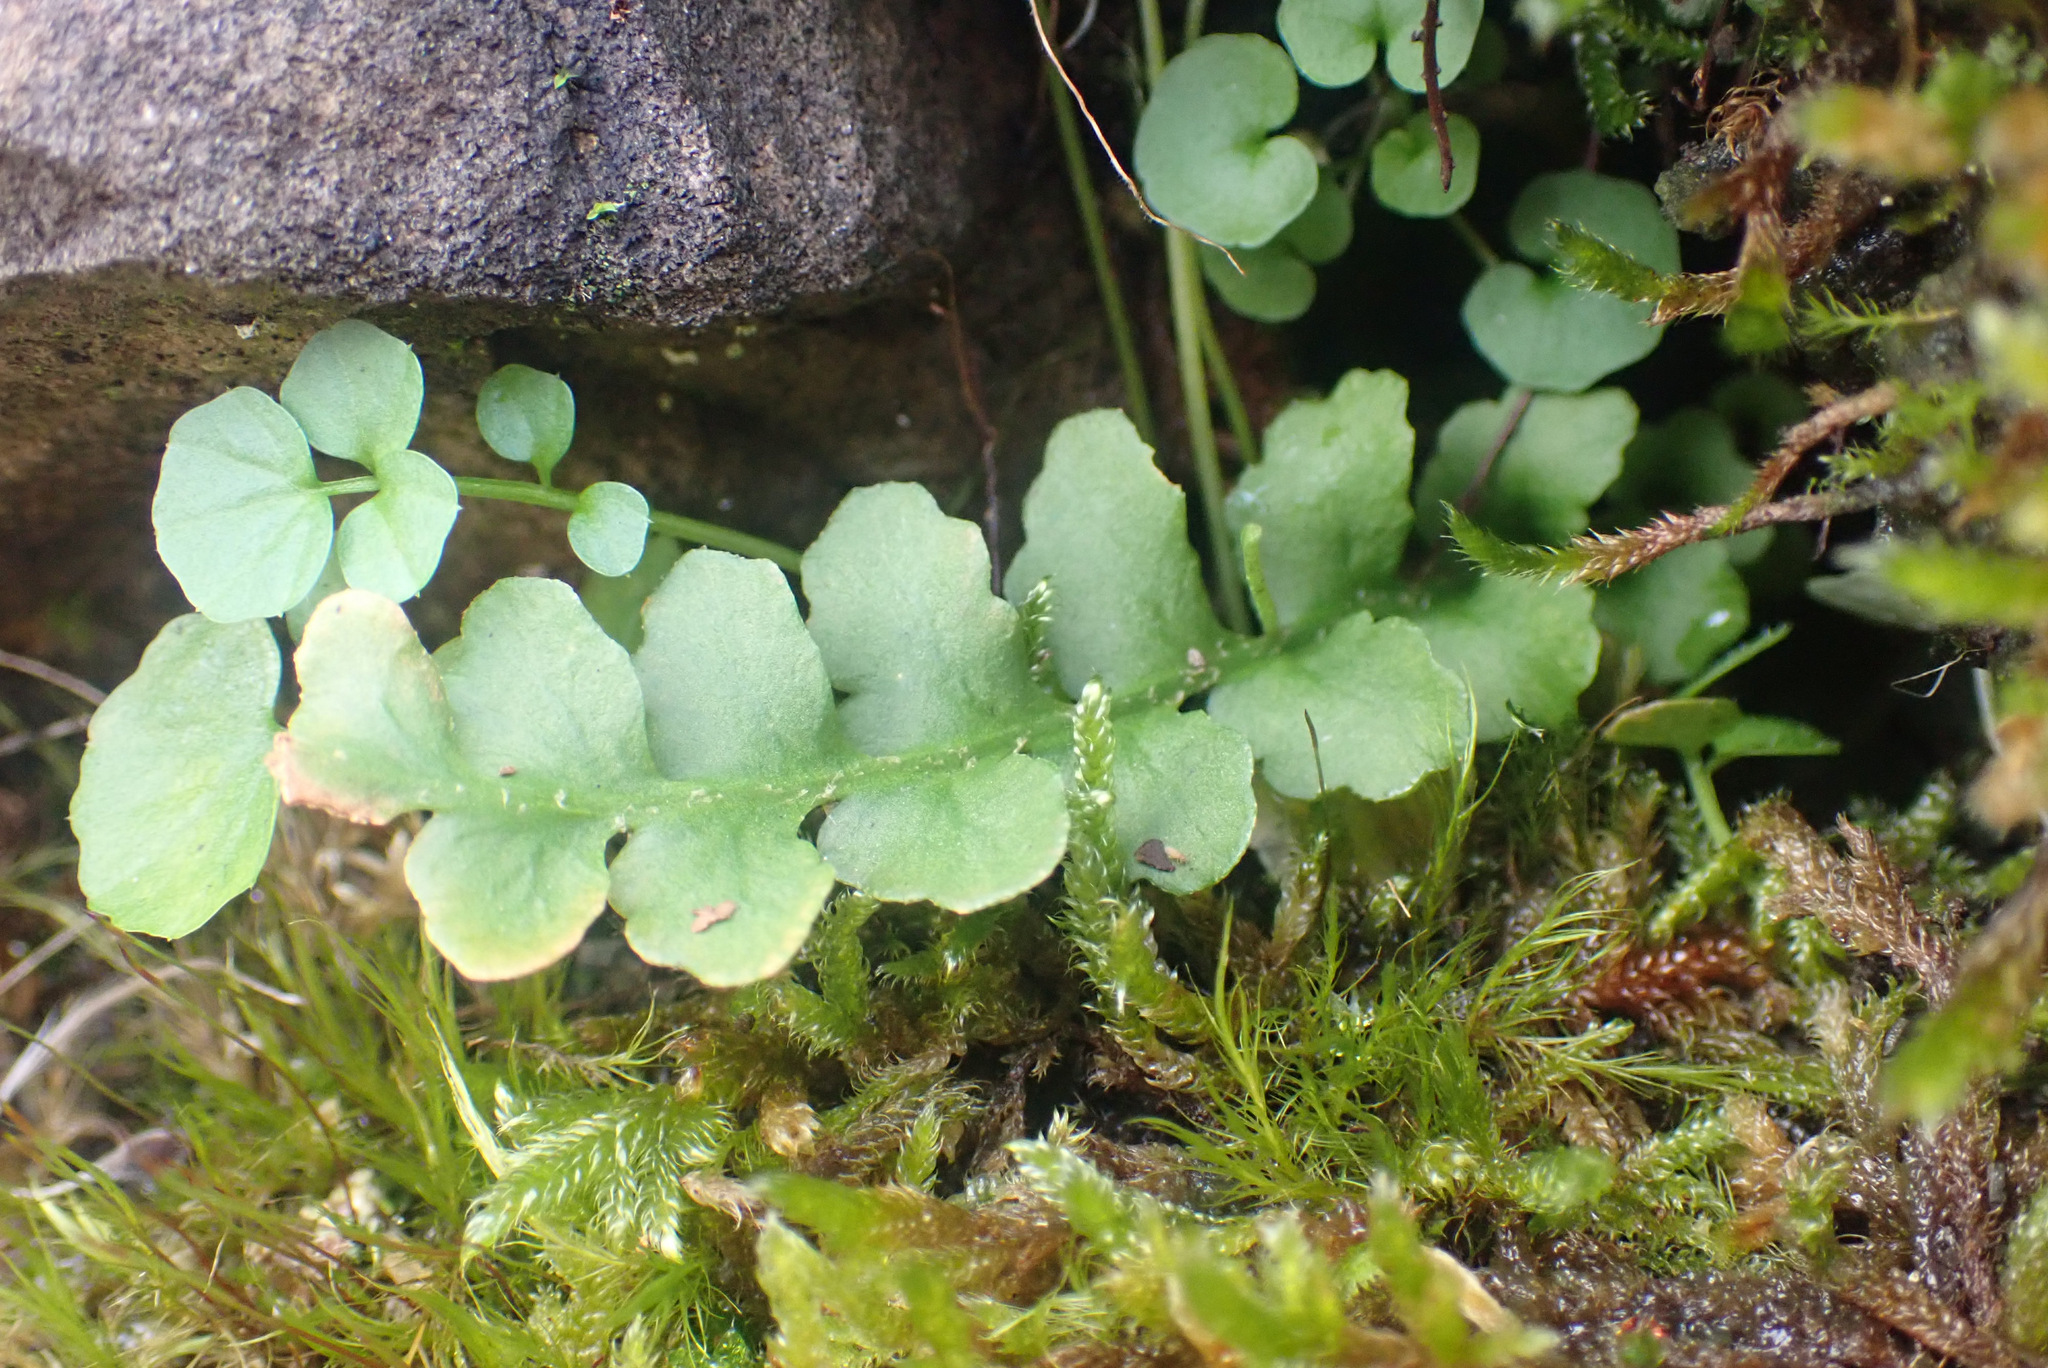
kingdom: Plantae
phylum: Tracheophyta
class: Polypodiopsida
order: Polypodiales
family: Aspleniaceae
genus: Asplenium
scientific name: Asplenium ceterach
